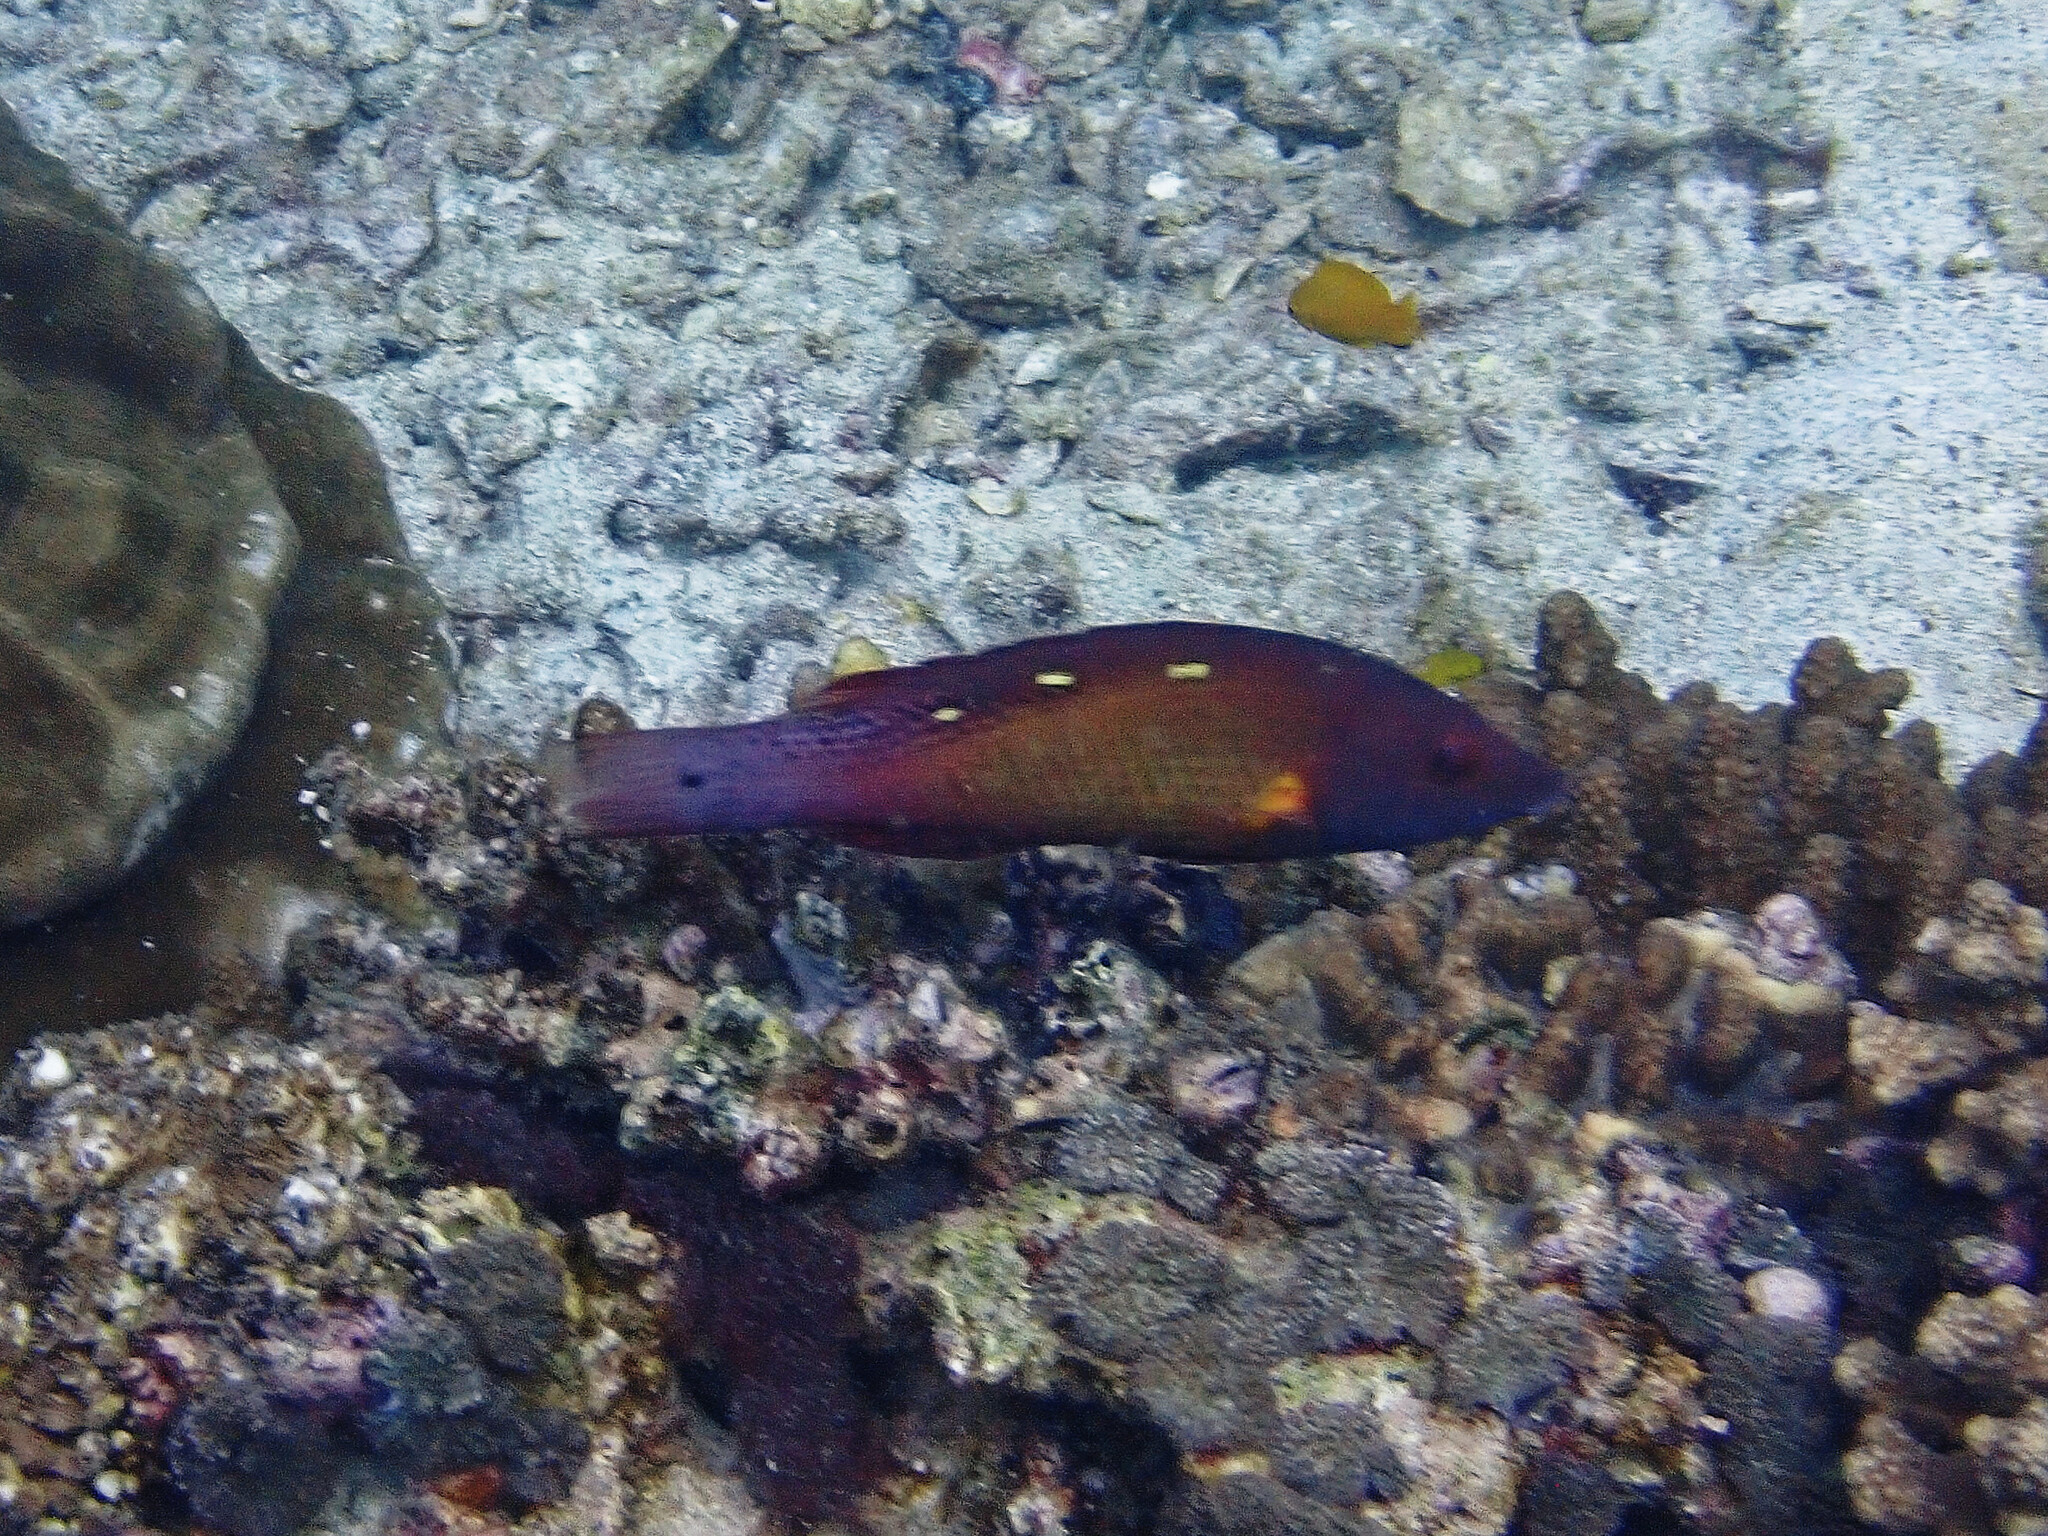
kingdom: Animalia
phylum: Chordata
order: Perciformes
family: Labridae
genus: Bodianus
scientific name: Bodianus diana
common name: Diana's hogfish
